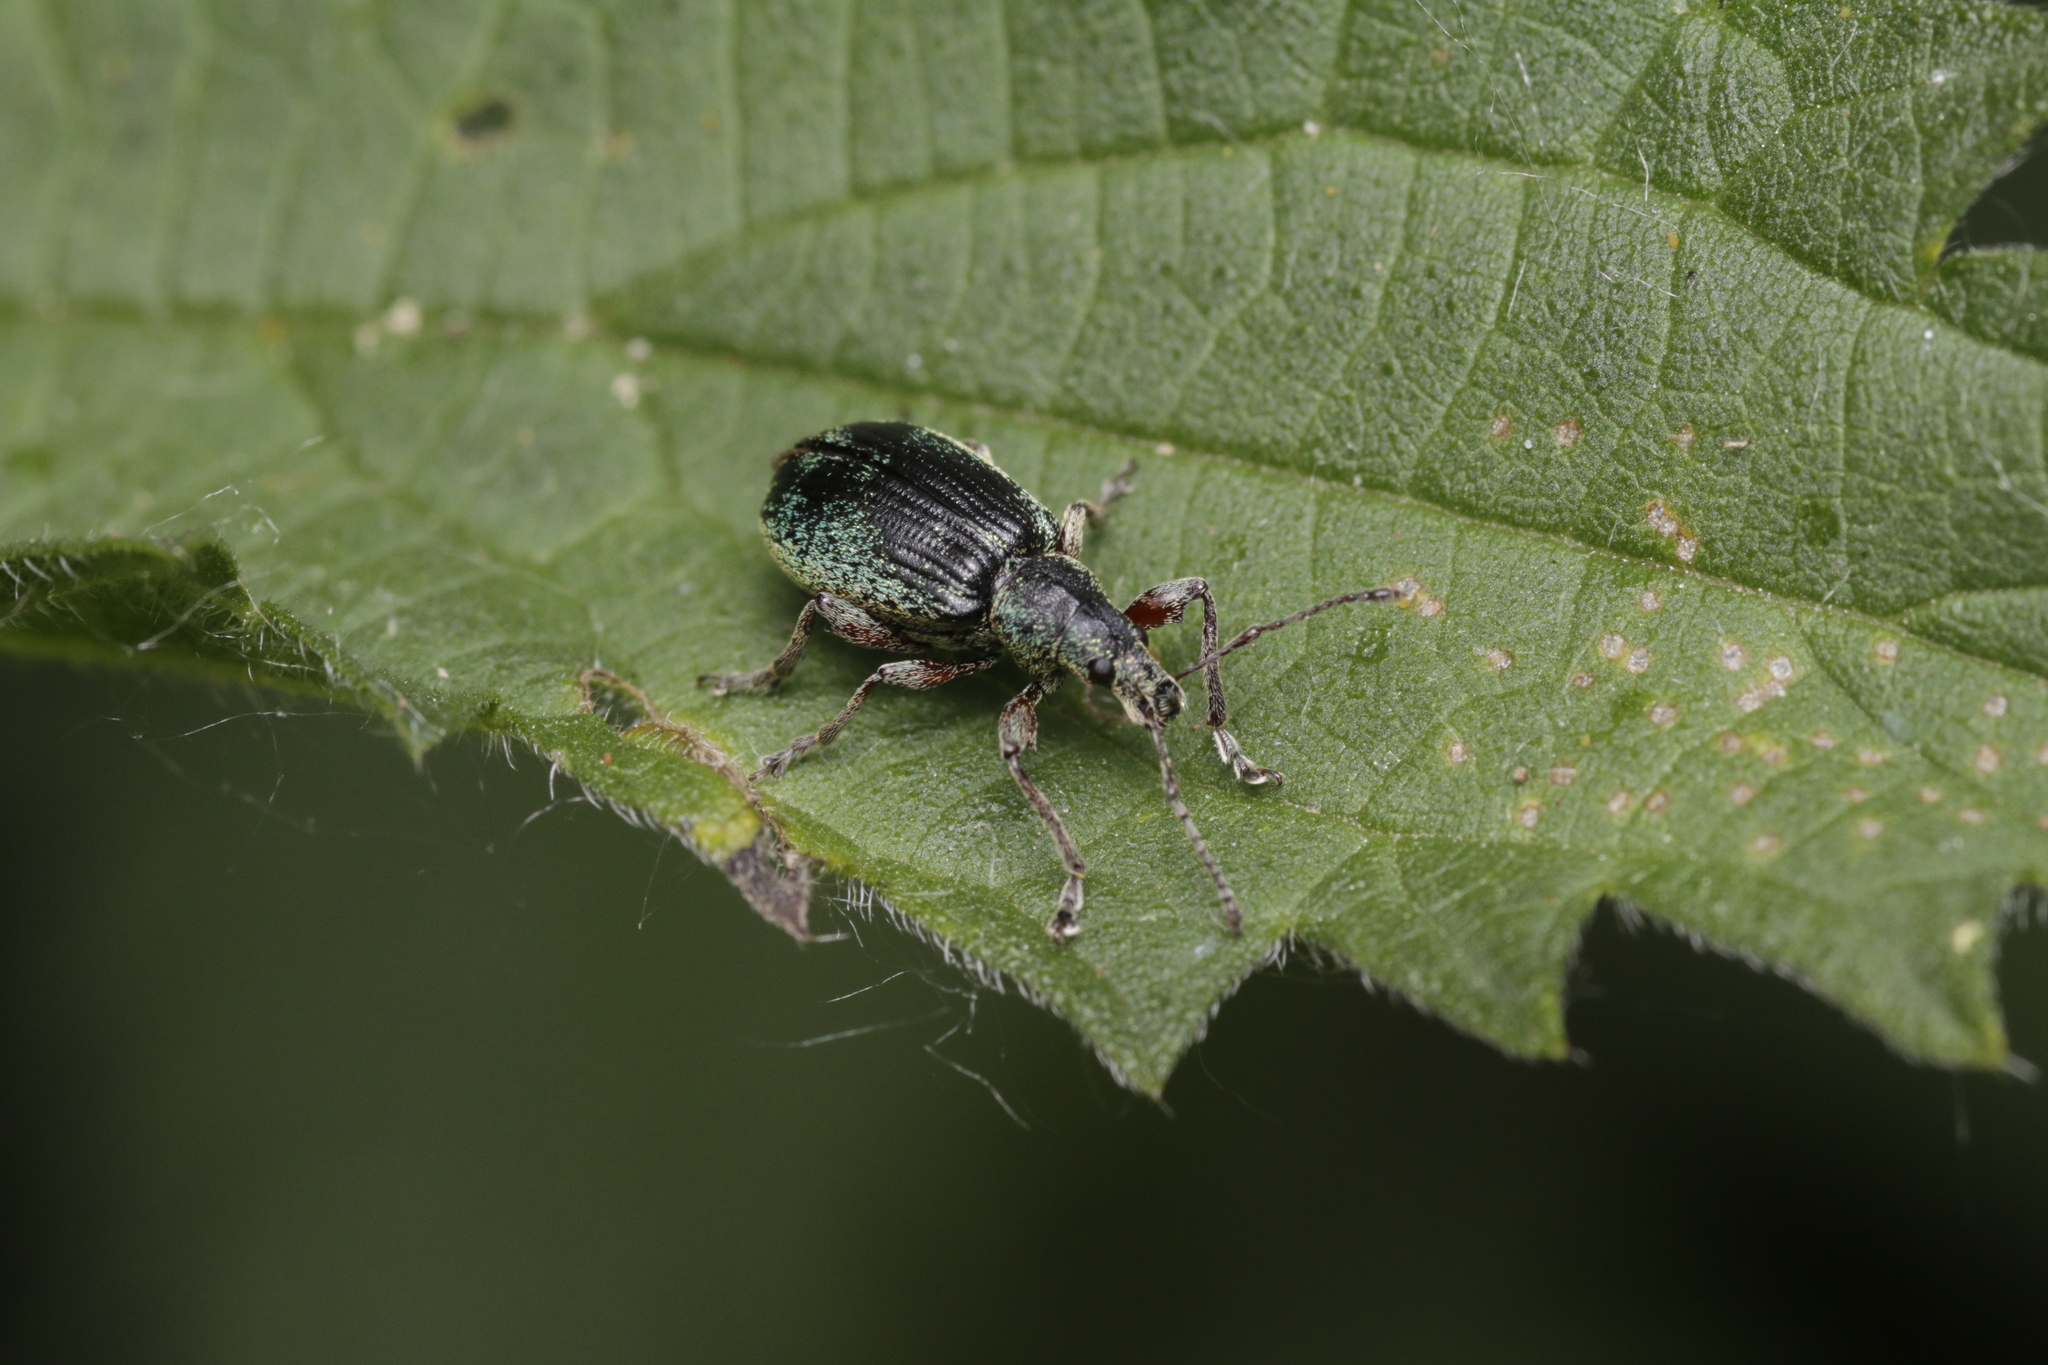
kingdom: Animalia
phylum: Arthropoda
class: Insecta
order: Coleoptera
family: Curculionidae
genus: Phyllobius
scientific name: Phyllobius pomaceus
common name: Green nettle weevil
